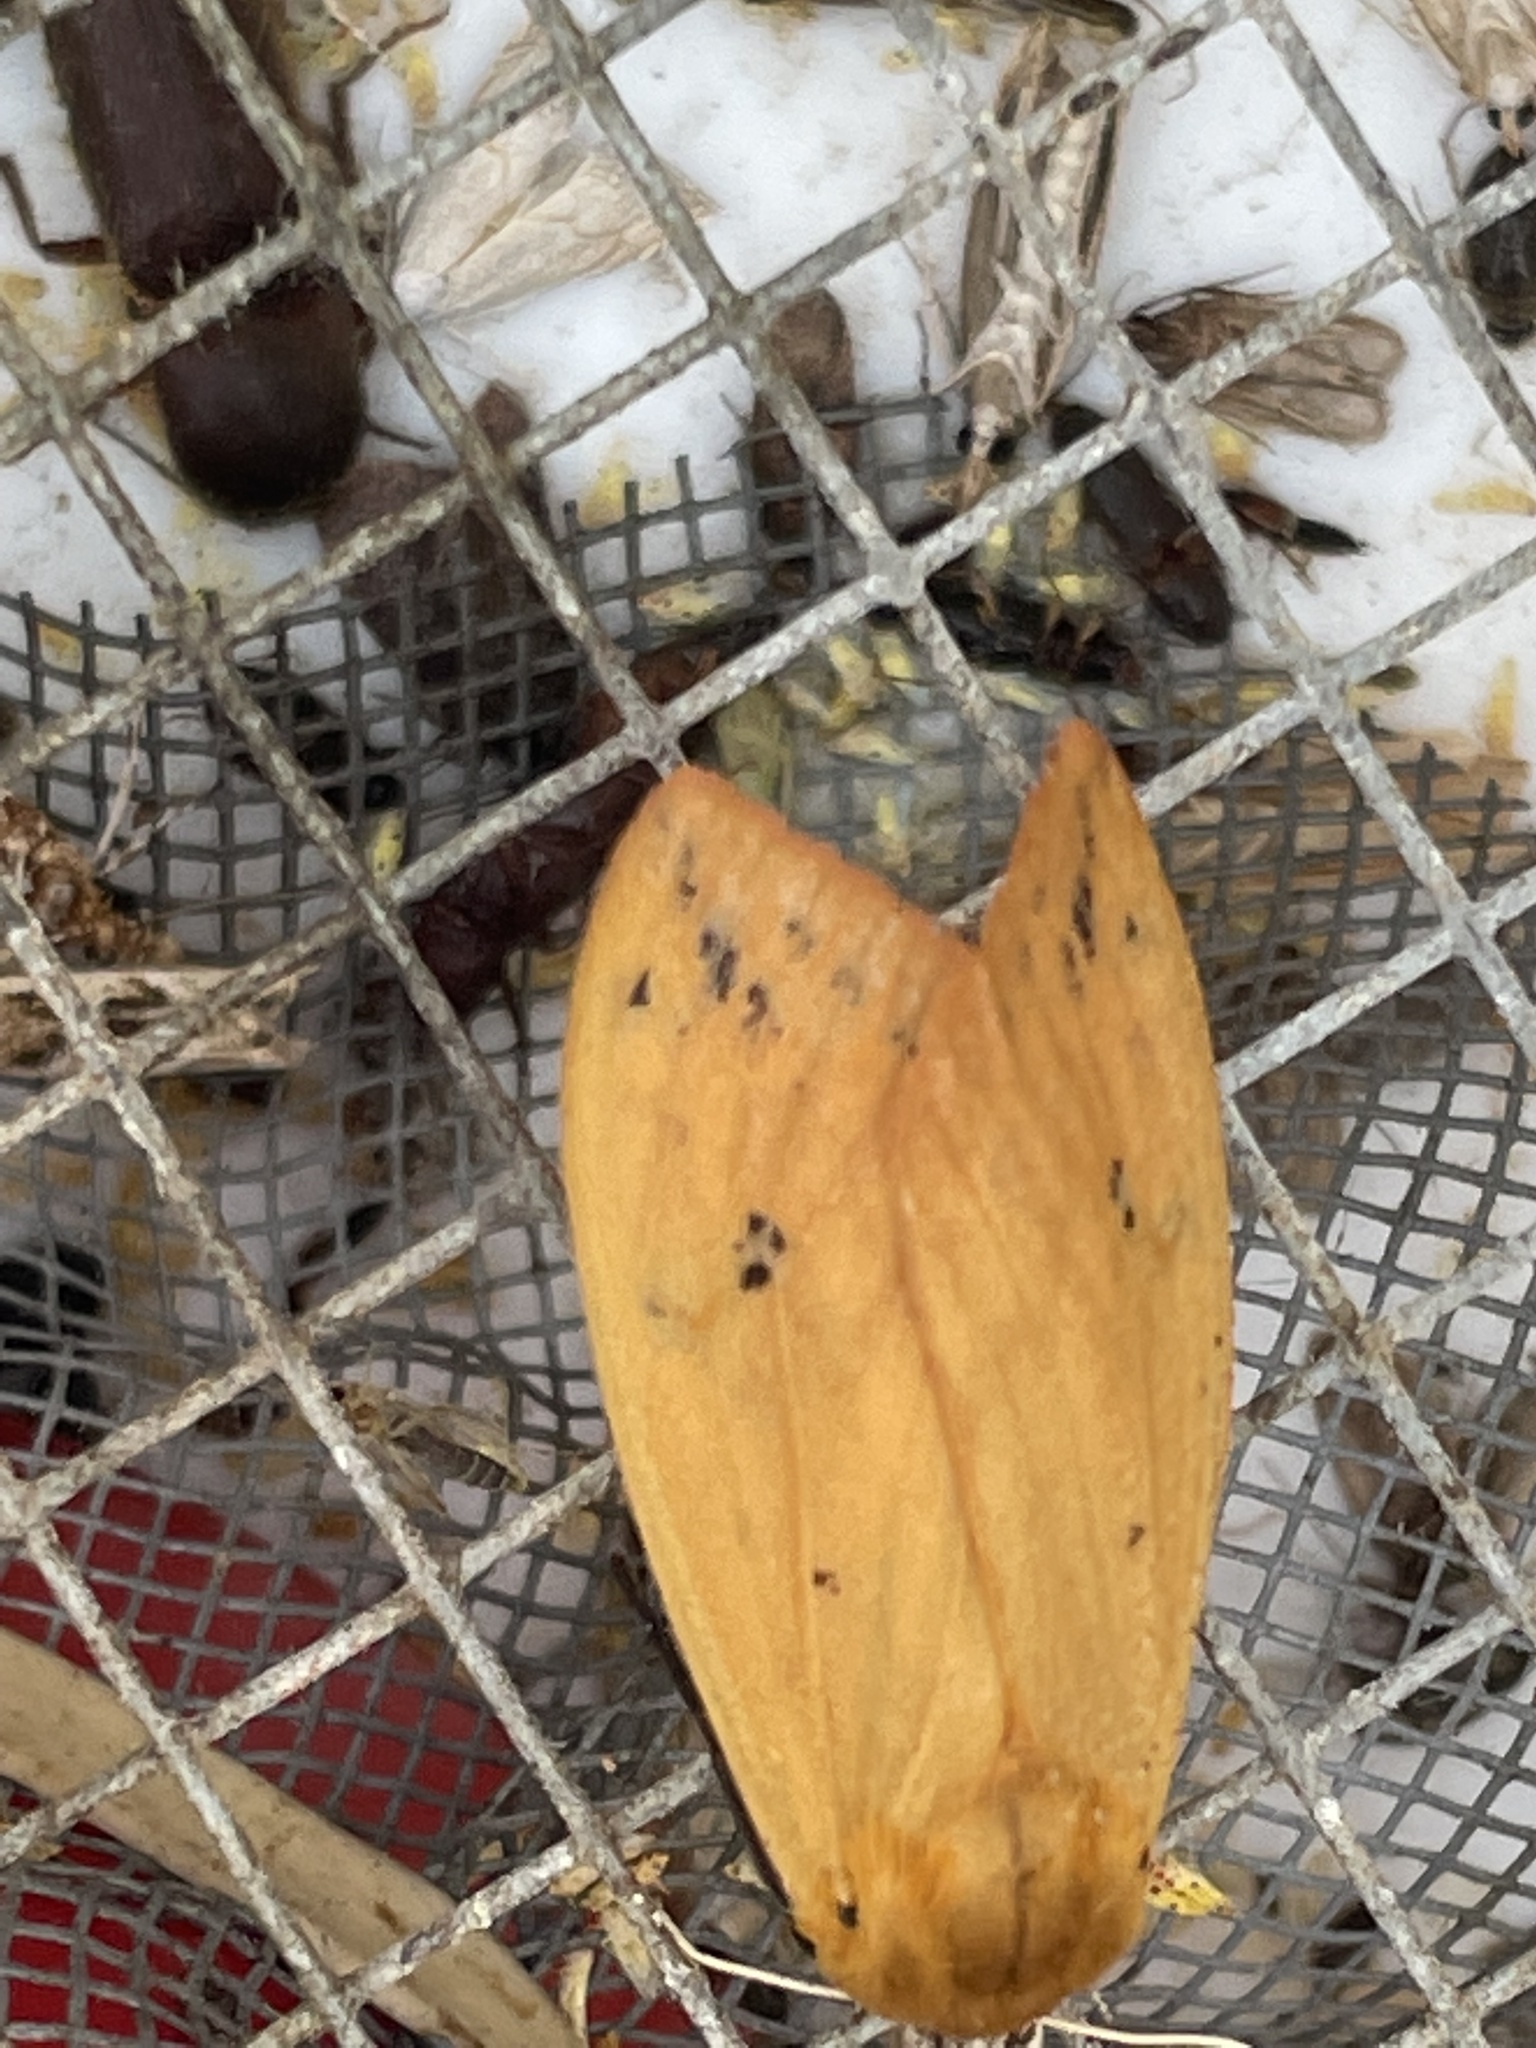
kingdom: Animalia
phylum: Arthropoda
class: Insecta
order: Lepidoptera
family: Erebidae
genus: Pyrrharctia
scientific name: Pyrrharctia isabella
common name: Isabella tiger moth
